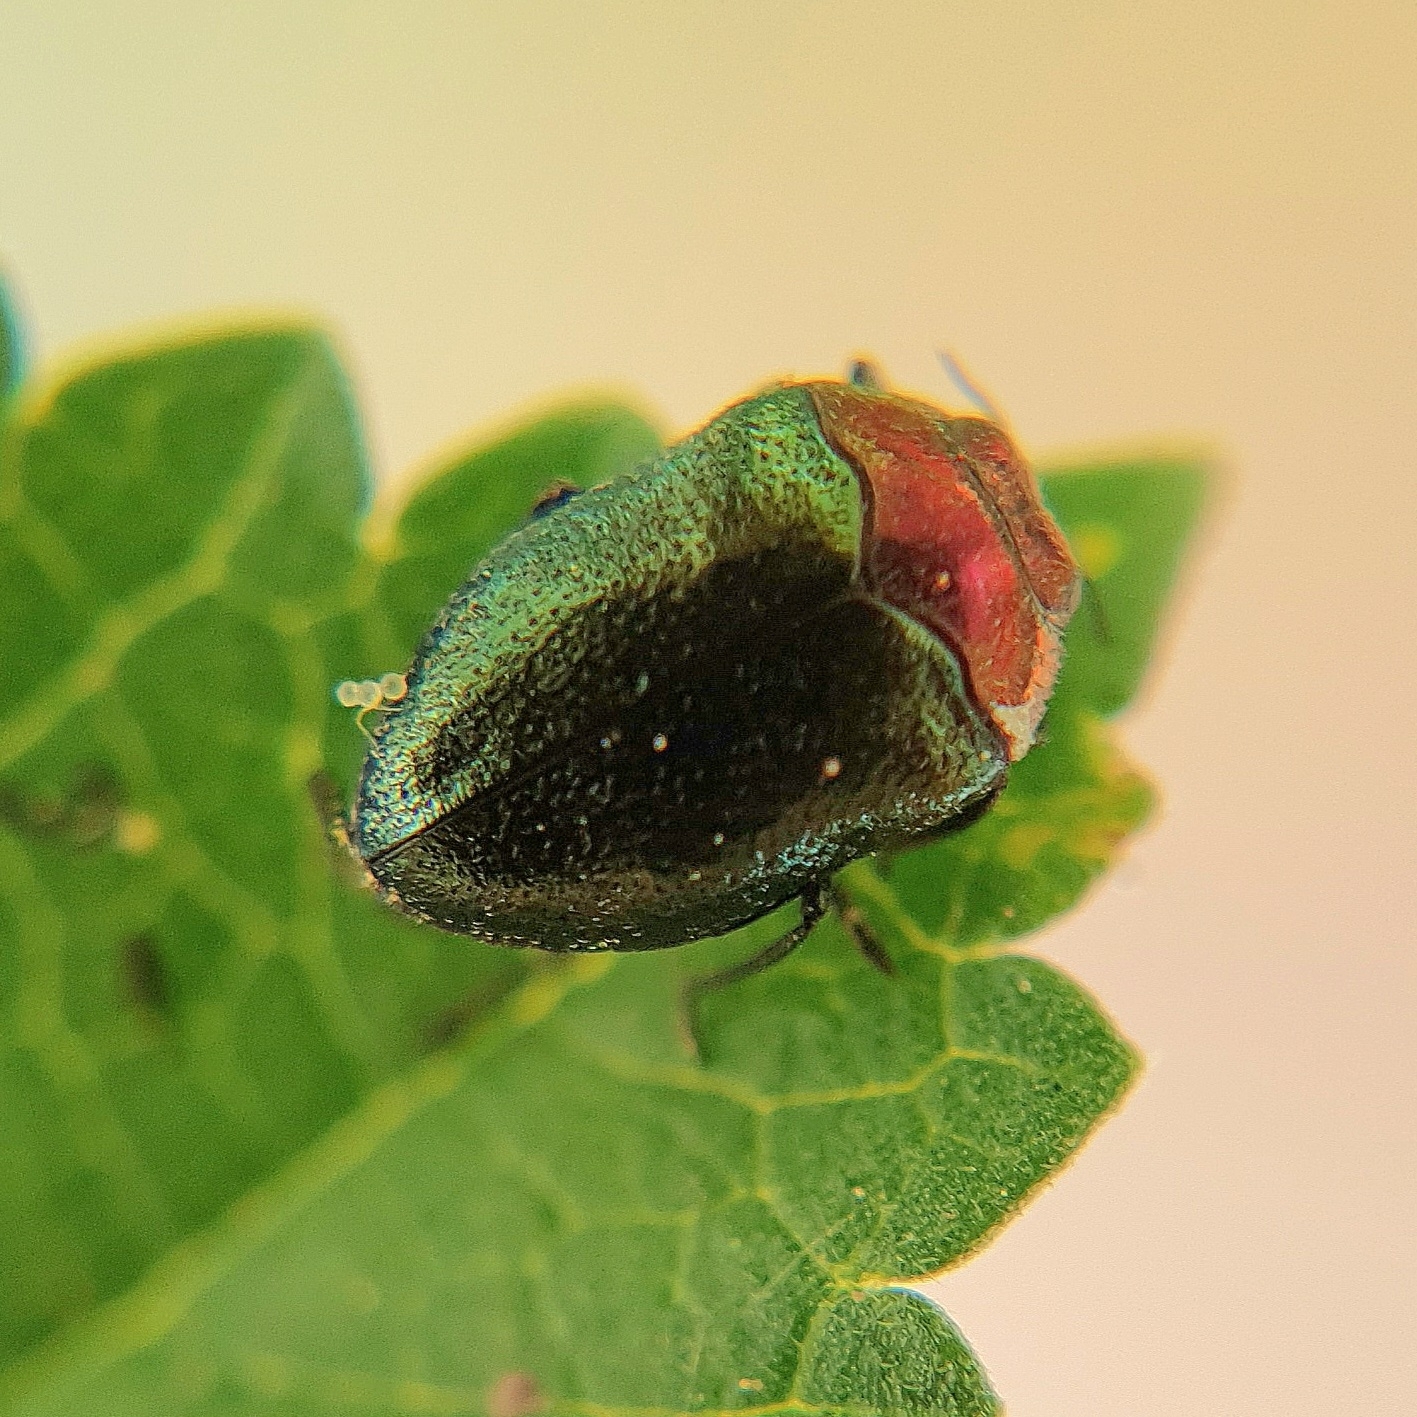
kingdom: Animalia
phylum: Arthropoda
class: Insecta
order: Coleoptera
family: Buprestidae
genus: Trachys
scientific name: Trachys troglodytiformis
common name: Metallic wood-boring beetle
